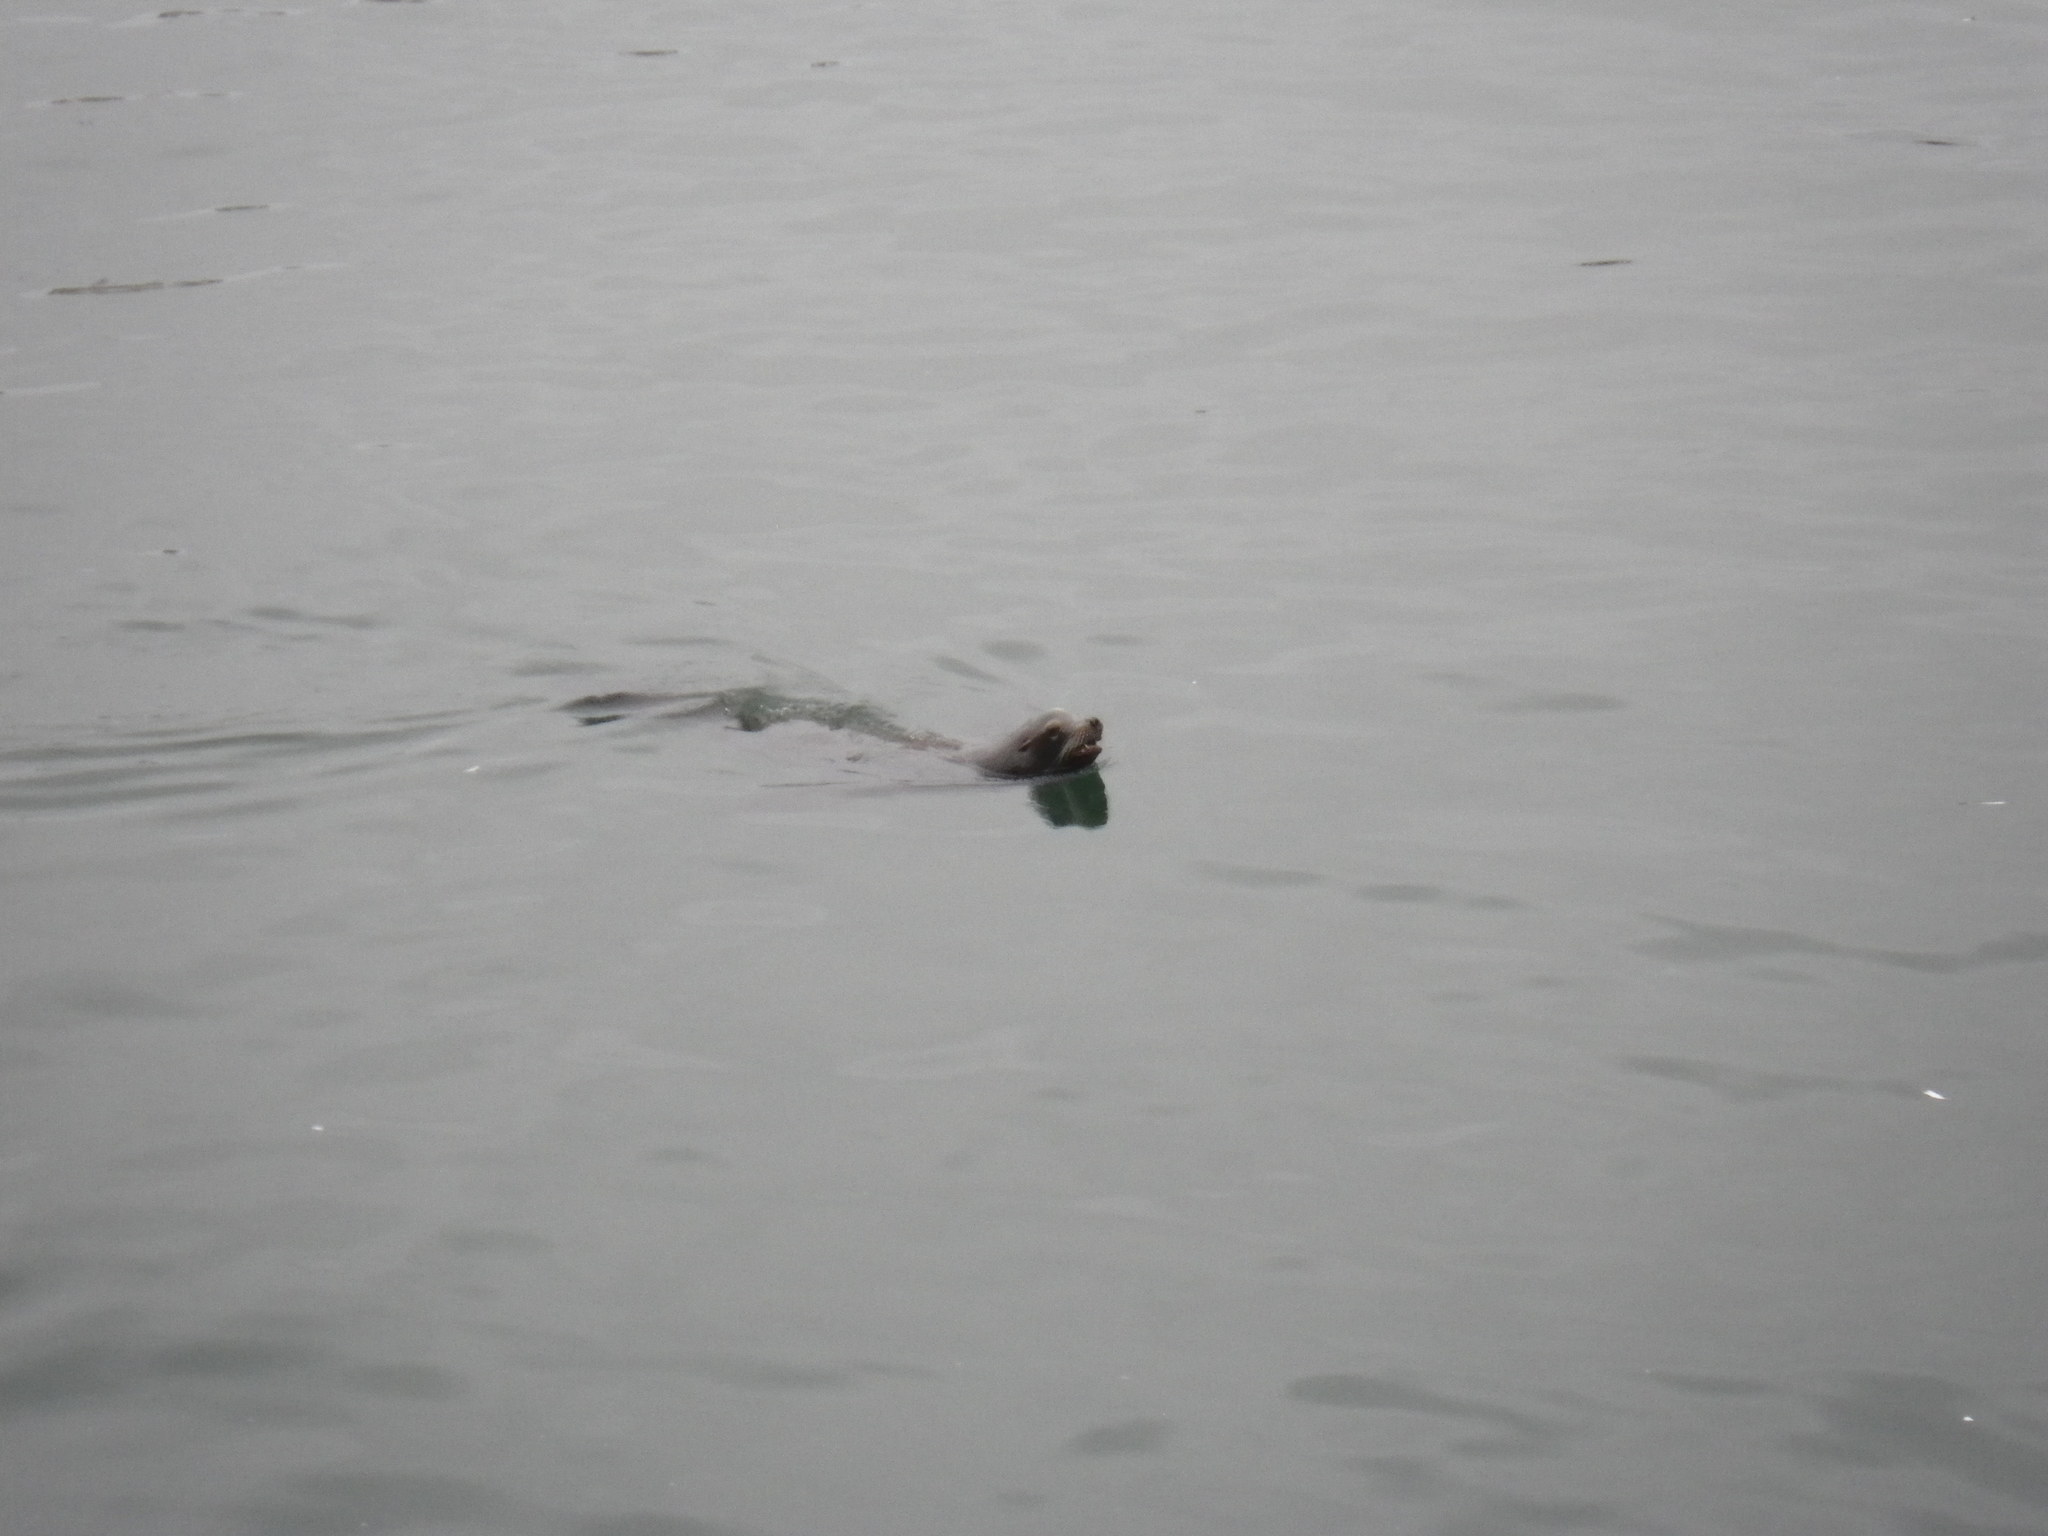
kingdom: Animalia
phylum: Chordata
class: Mammalia
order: Carnivora
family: Otariidae
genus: Zalophus
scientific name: Zalophus californianus
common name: California sea lion
